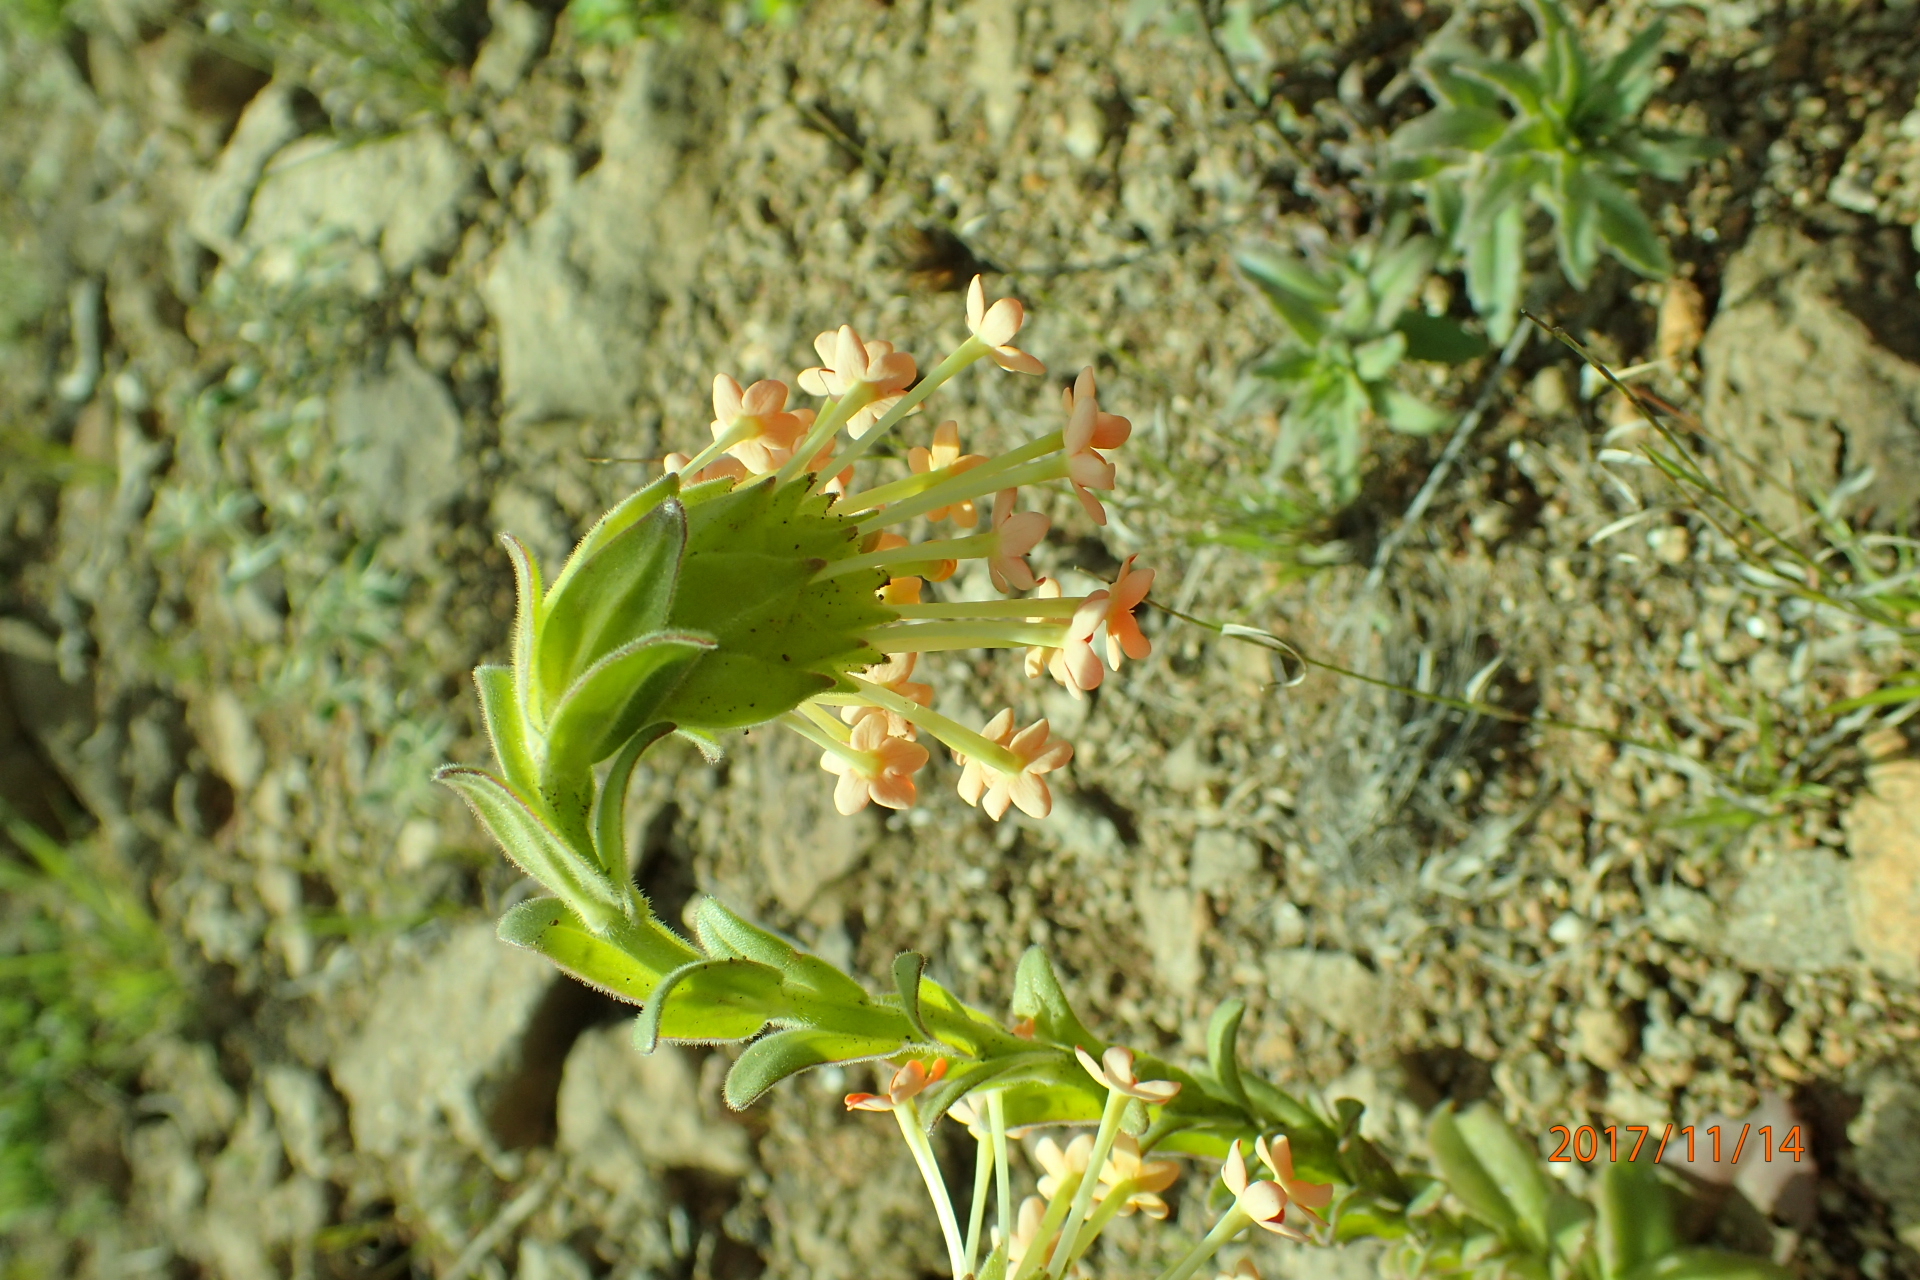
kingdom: Plantae
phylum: Tracheophyta
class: Magnoliopsida
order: Lamiales
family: Scrophulariaceae
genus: Glumicalyx
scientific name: Glumicalyx goseloides
